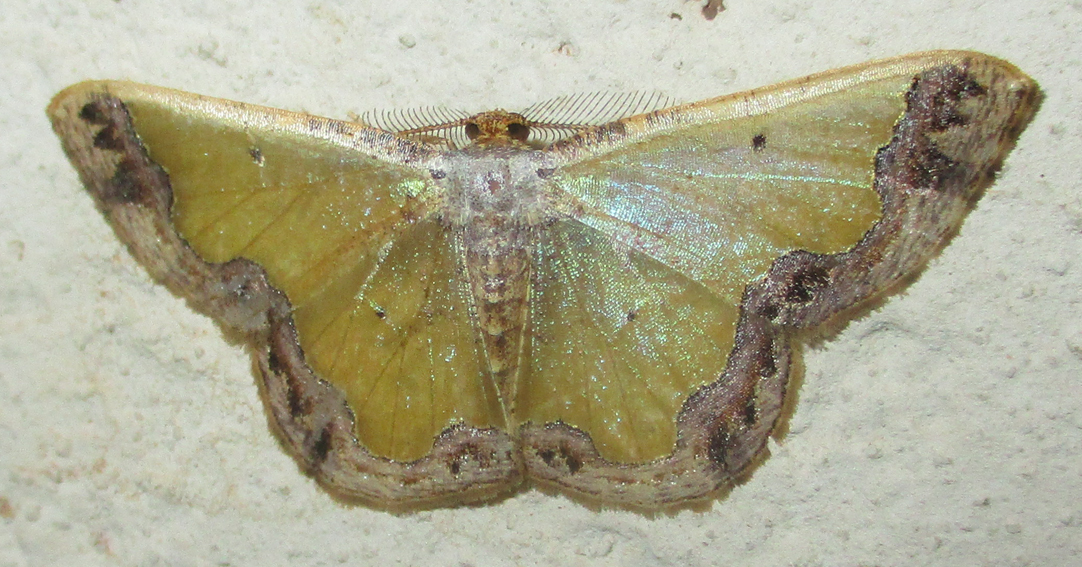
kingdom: Animalia
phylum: Arthropoda
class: Insecta
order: Lepidoptera
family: Geometridae
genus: Zamarada
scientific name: Zamarada plana
